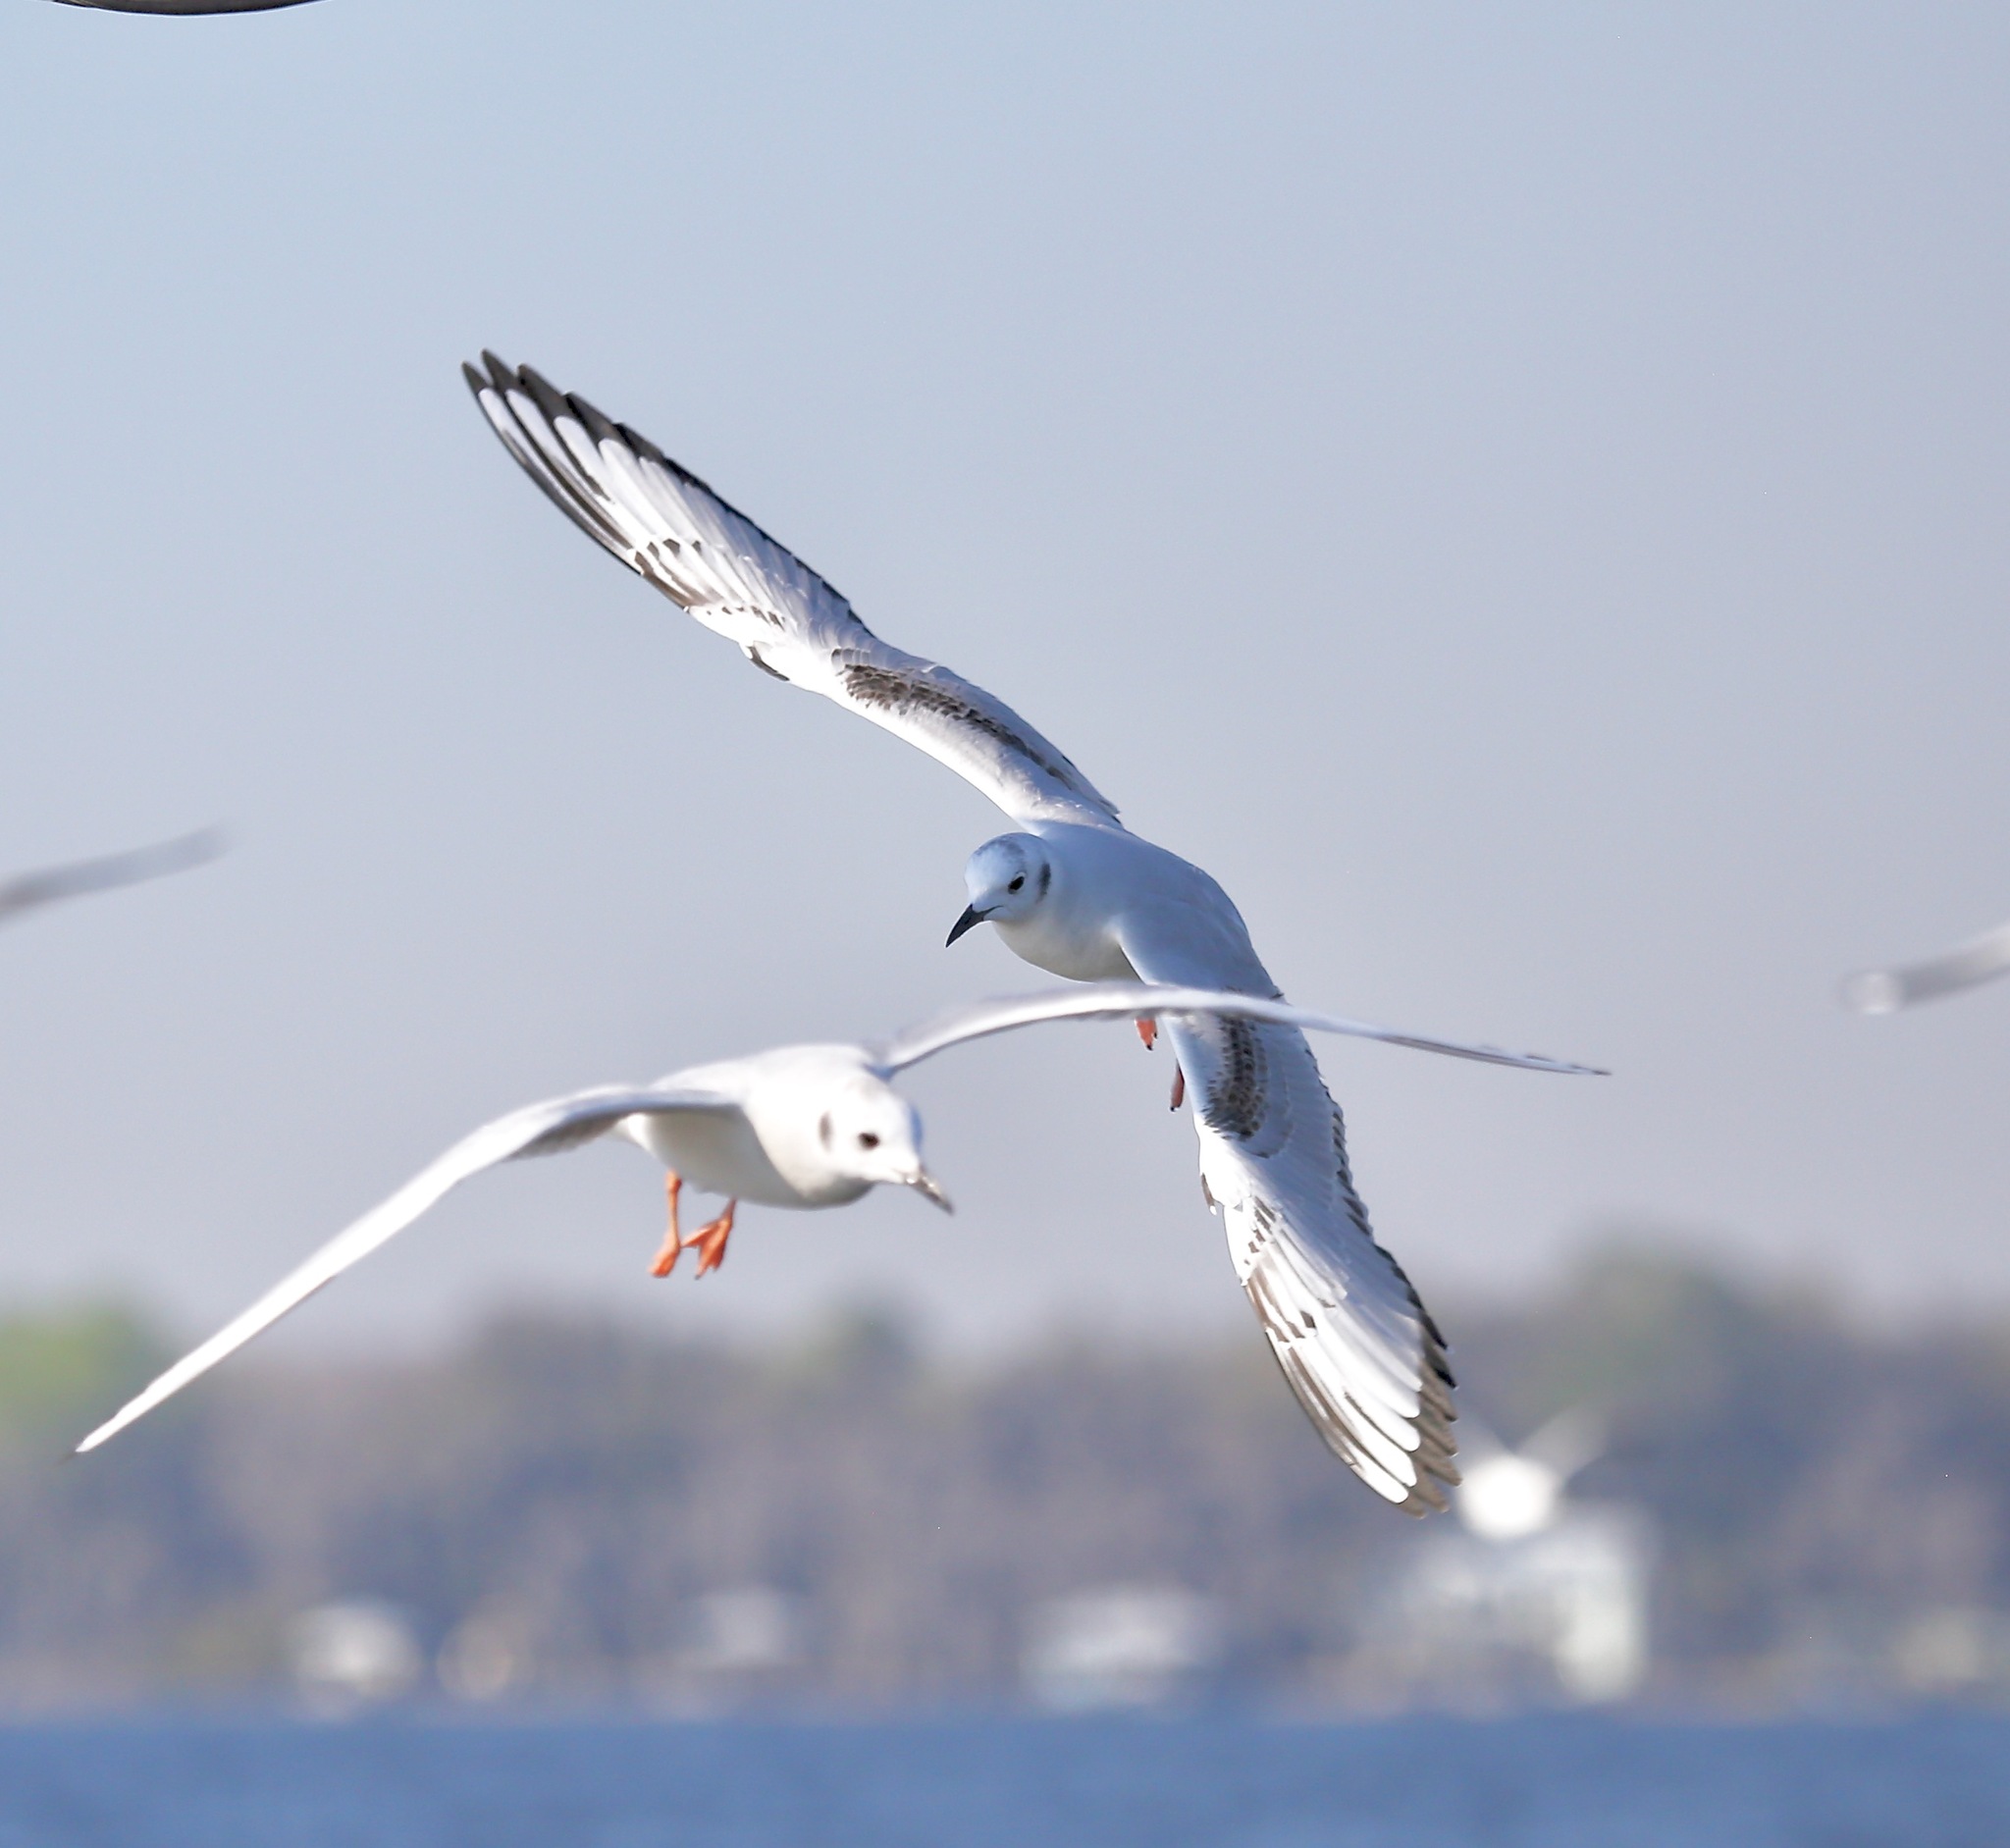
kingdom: Animalia
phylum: Chordata
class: Aves
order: Charadriiformes
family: Laridae
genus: Chroicocephalus
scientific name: Chroicocephalus philadelphia
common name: Bonaparte's gull
